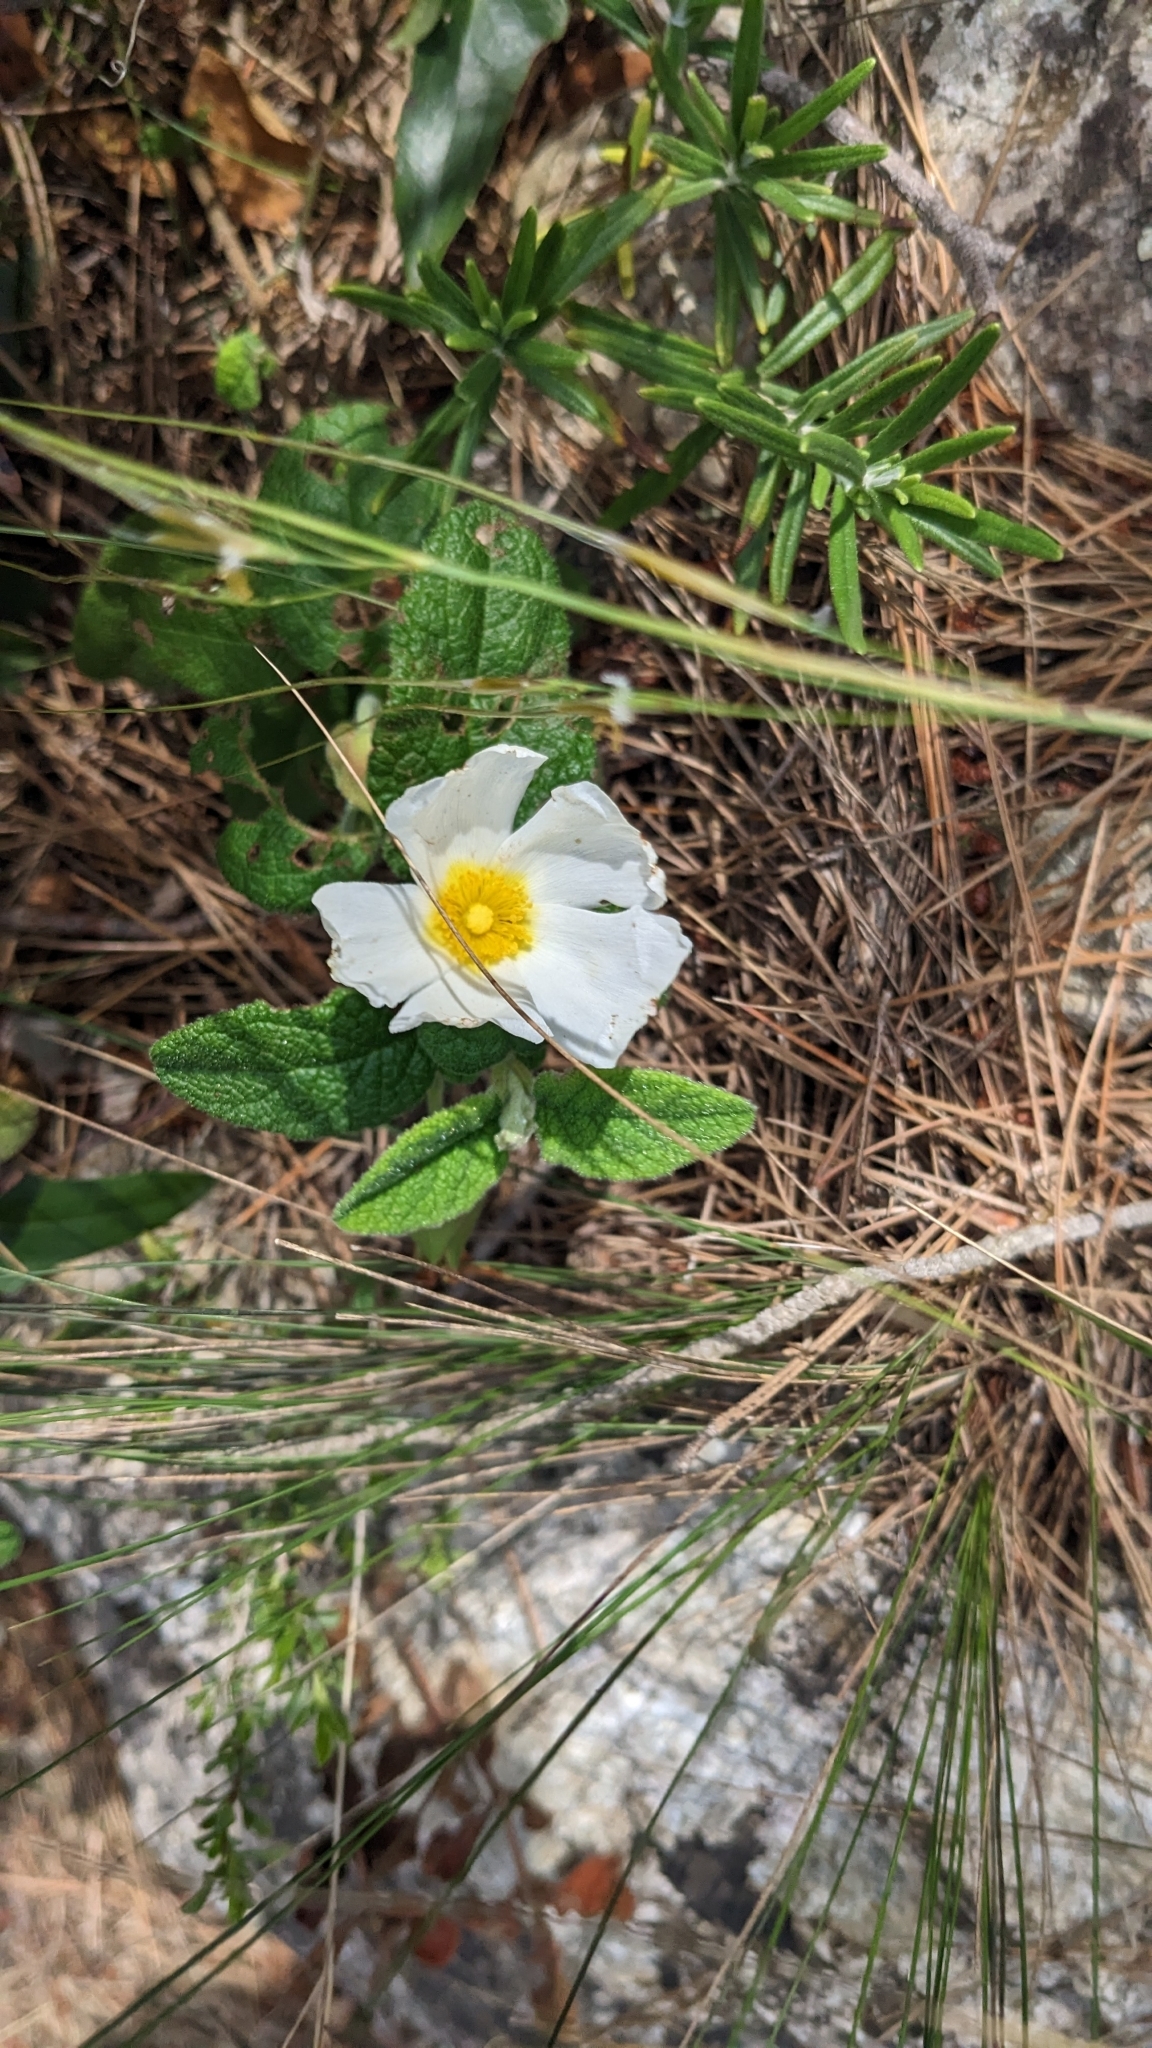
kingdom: Plantae
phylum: Tracheophyta
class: Magnoliopsida
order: Malvales
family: Cistaceae
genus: Cistus
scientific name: Cistus salviifolius
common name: Salvia cistus
